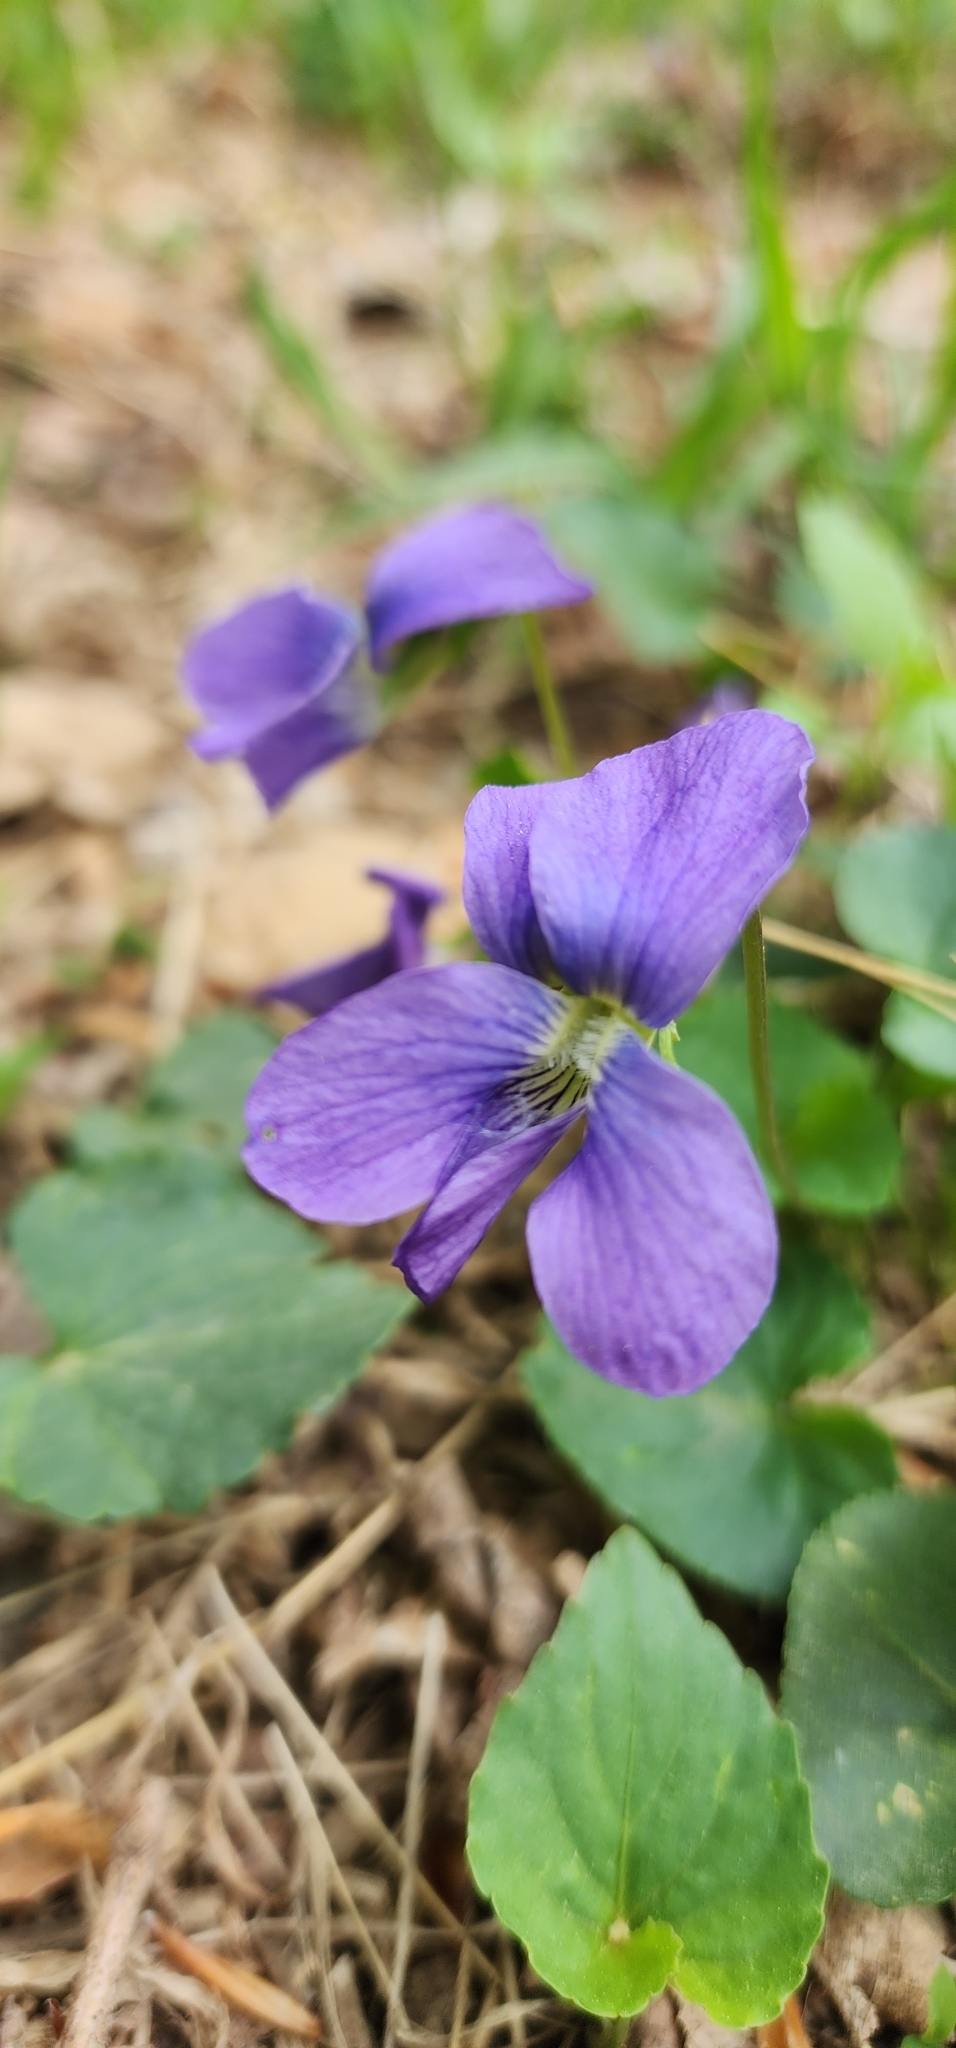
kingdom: Plantae
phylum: Tracheophyta
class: Magnoliopsida
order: Malpighiales
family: Violaceae
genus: Viola
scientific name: Viola sororia
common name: Dooryard violet
